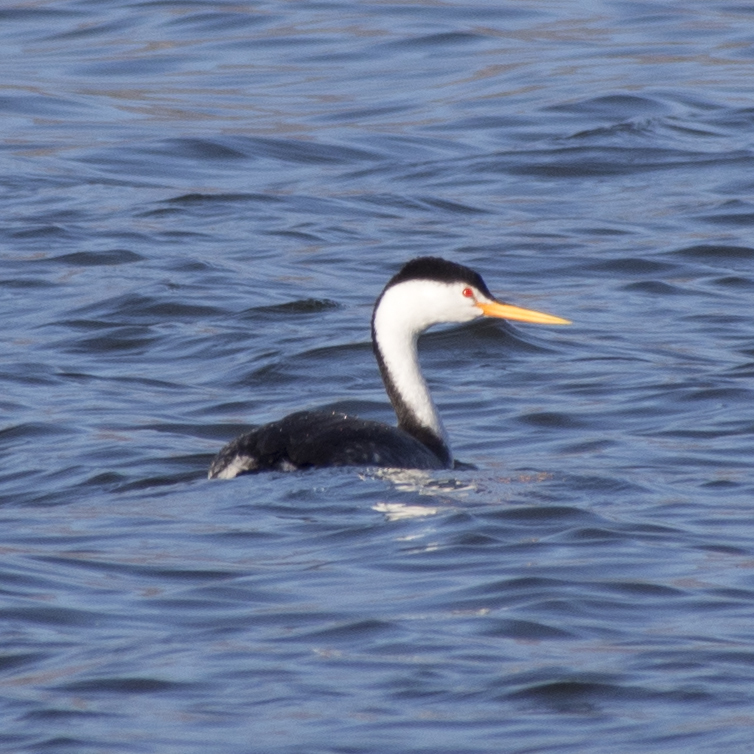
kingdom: Animalia
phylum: Chordata
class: Aves
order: Podicipediformes
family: Podicipedidae
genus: Aechmophorus
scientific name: Aechmophorus clarkii
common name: Clark's grebe
